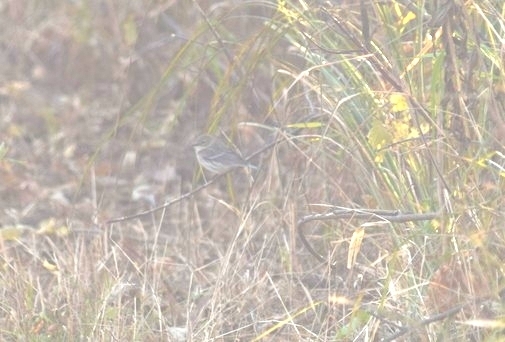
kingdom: Animalia
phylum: Chordata
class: Aves
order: Passeriformes
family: Parulidae
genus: Setophaga
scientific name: Setophaga coronata
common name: Myrtle warbler
